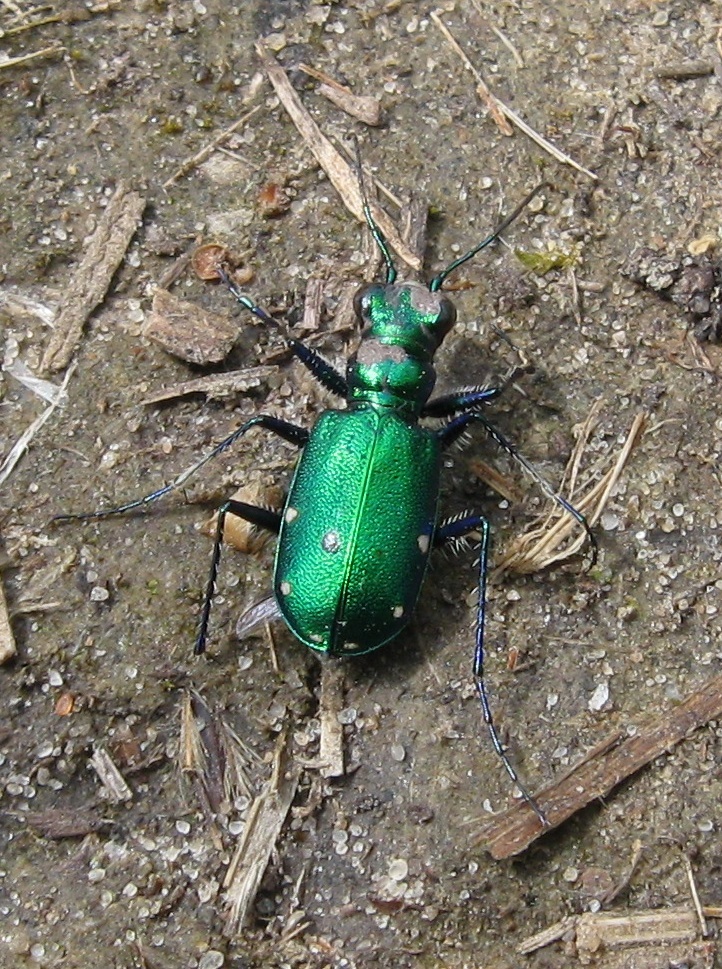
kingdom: Animalia
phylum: Arthropoda
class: Insecta
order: Coleoptera
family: Carabidae
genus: Cicindela
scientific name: Cicindela sexguttata
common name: Six-spotted tiger beetle
